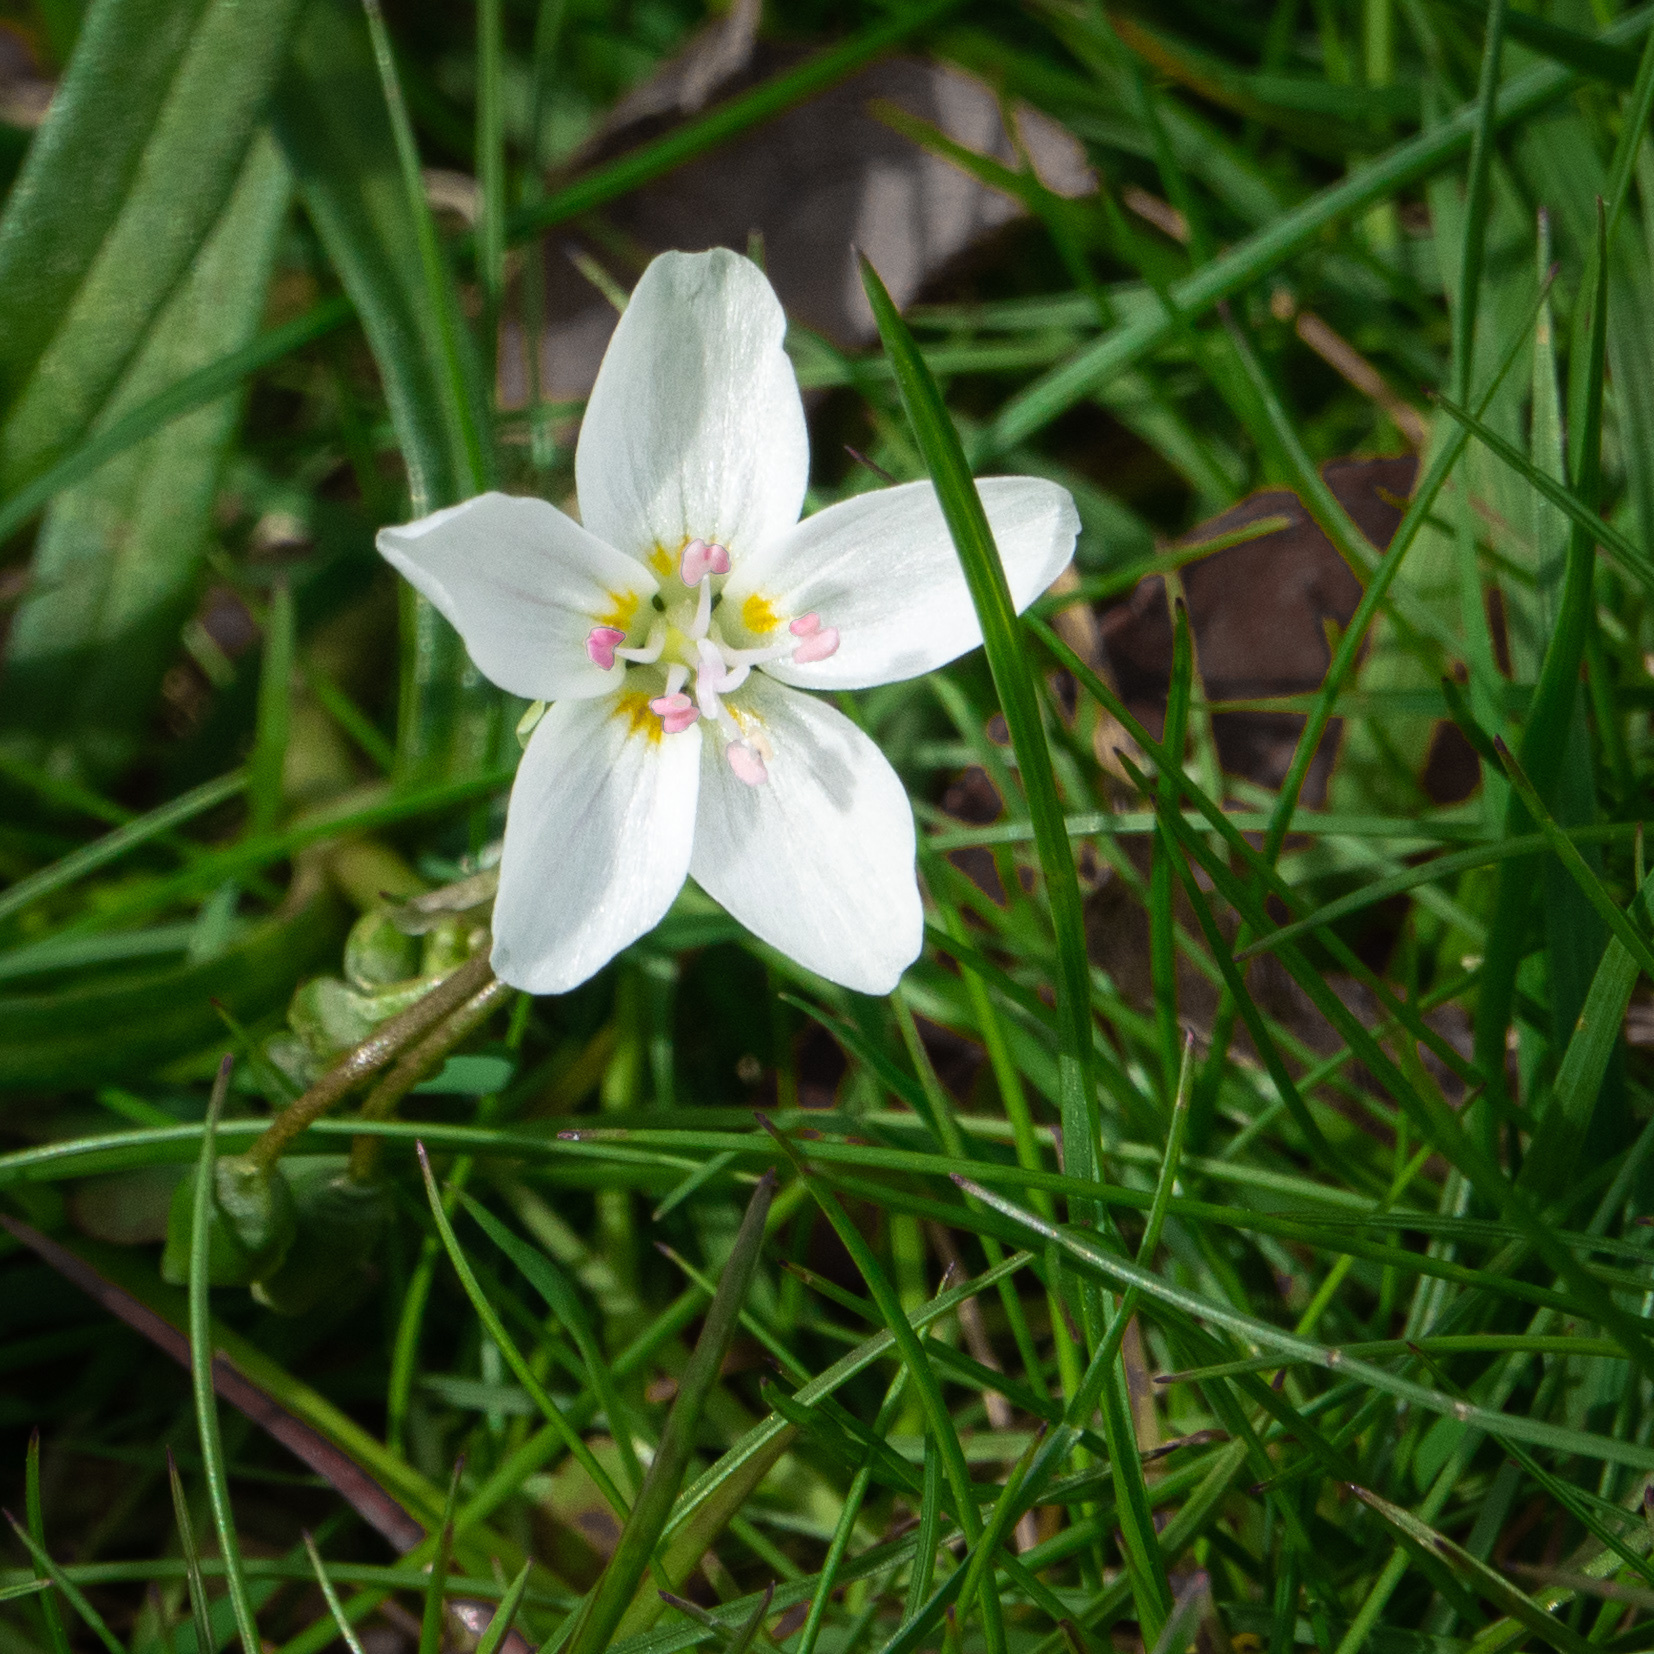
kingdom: Plantae
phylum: Tracheophyta
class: Magnoliopsida
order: Caryophyllales
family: Montiaceae
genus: Claytonia
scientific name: Claytonia virginica
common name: Virginia springbeauty
